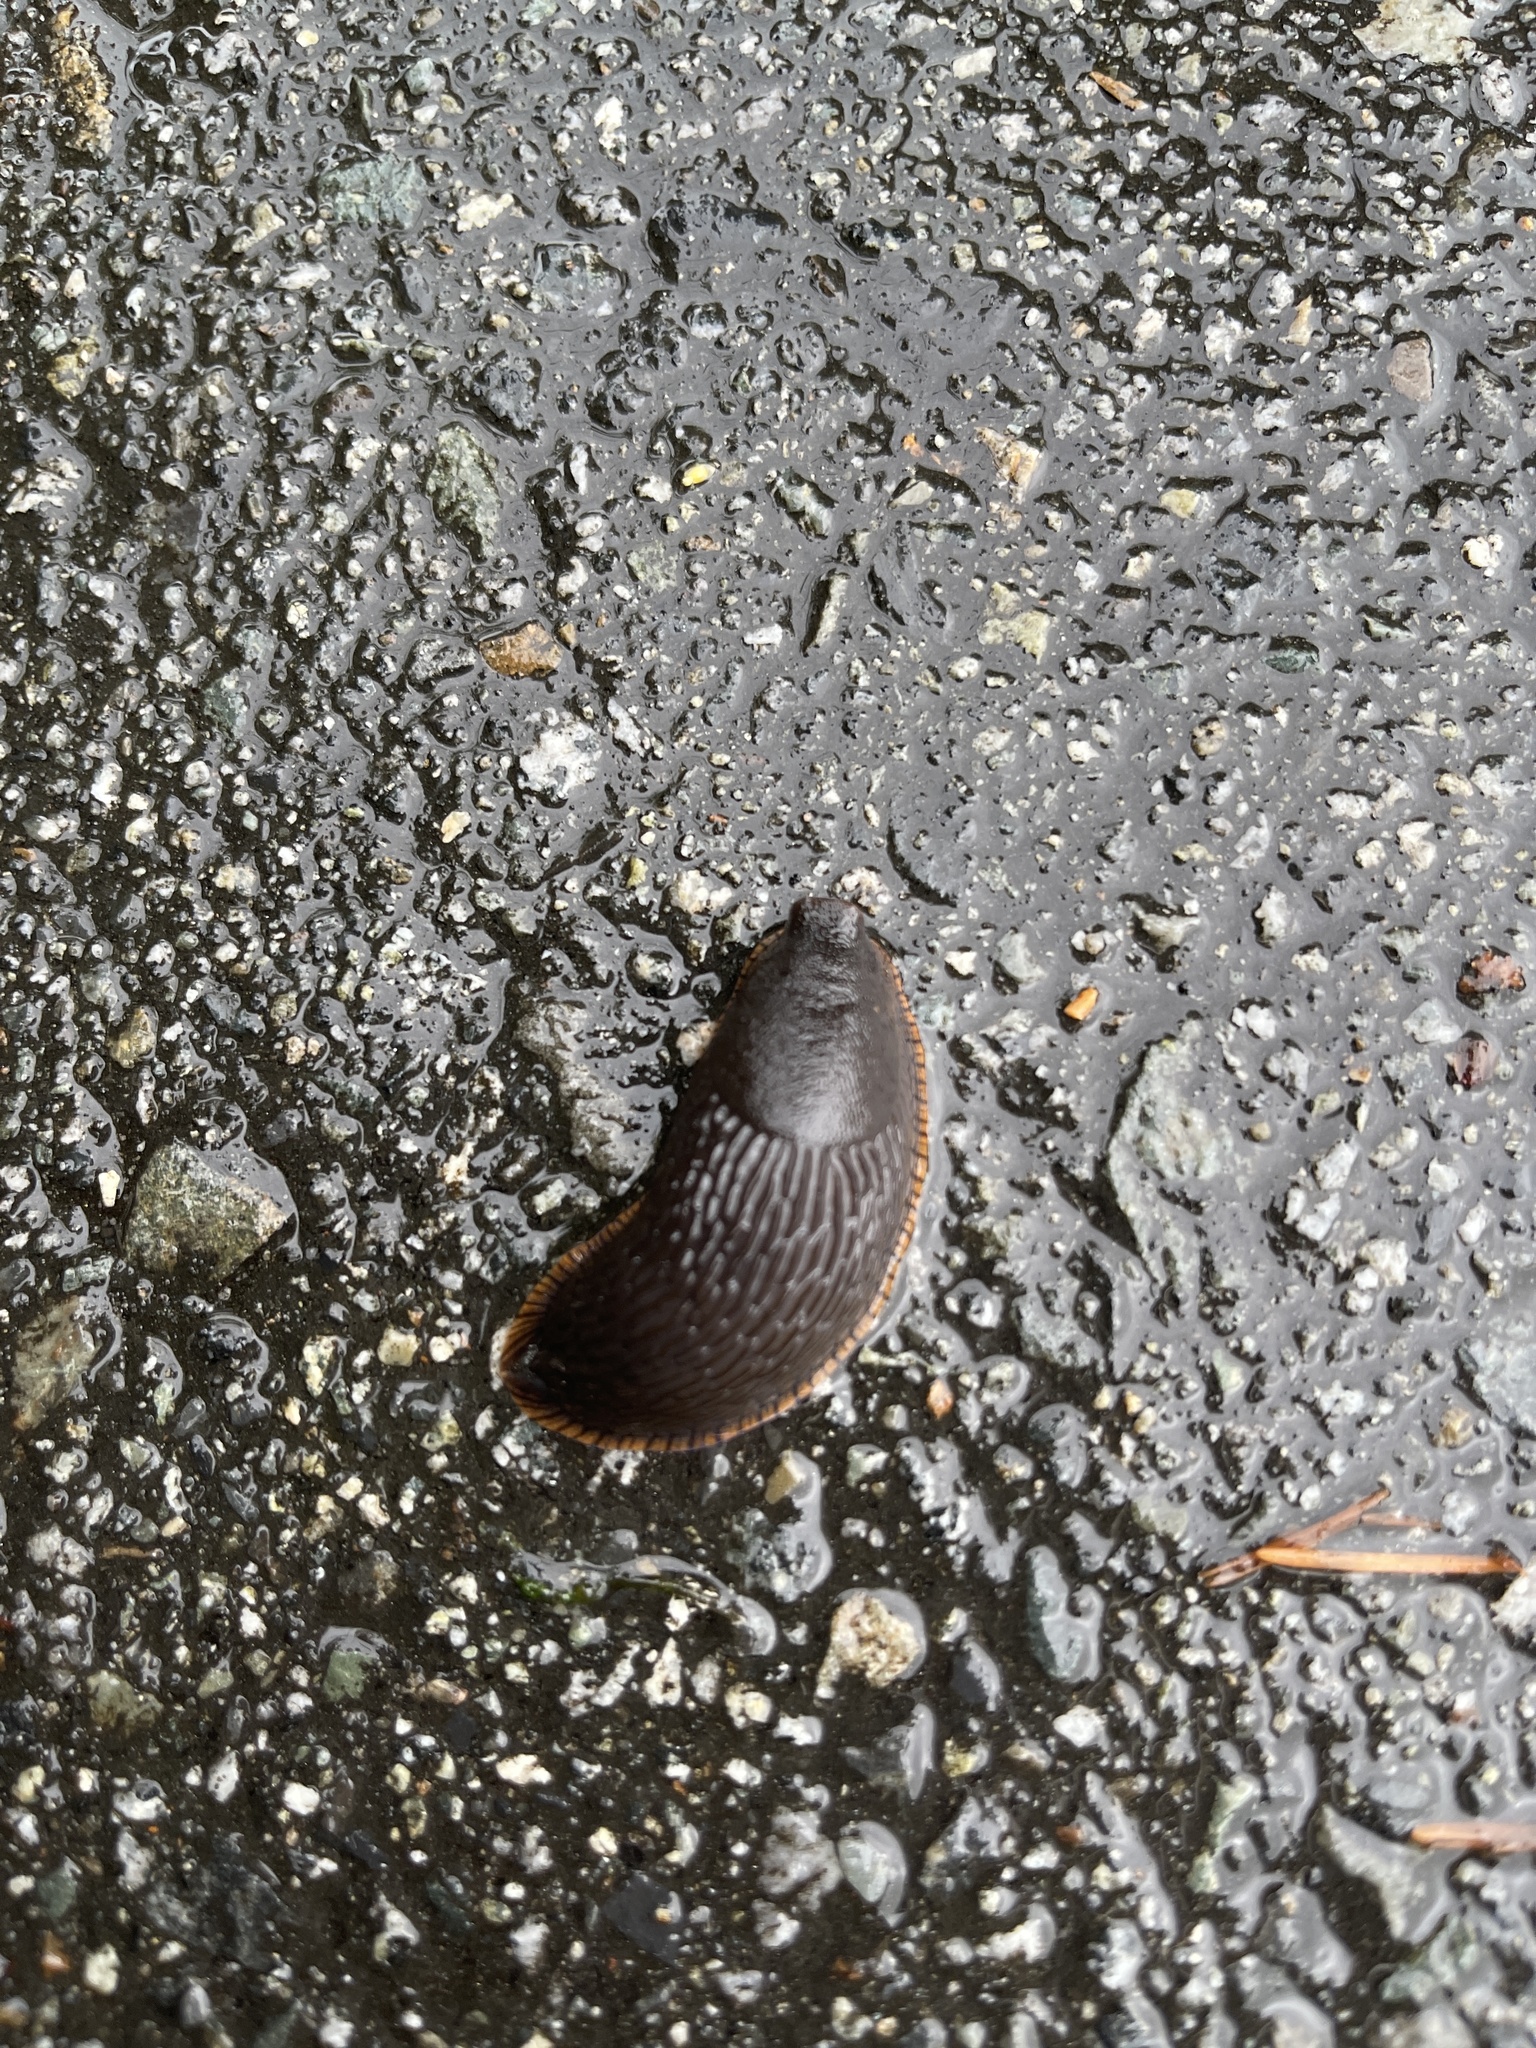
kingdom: Animalia
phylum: Mollusca
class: Gastropoda
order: Stylommatophora
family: Arionidae
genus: Arion
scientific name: Arion rufus
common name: Chocolate arion
